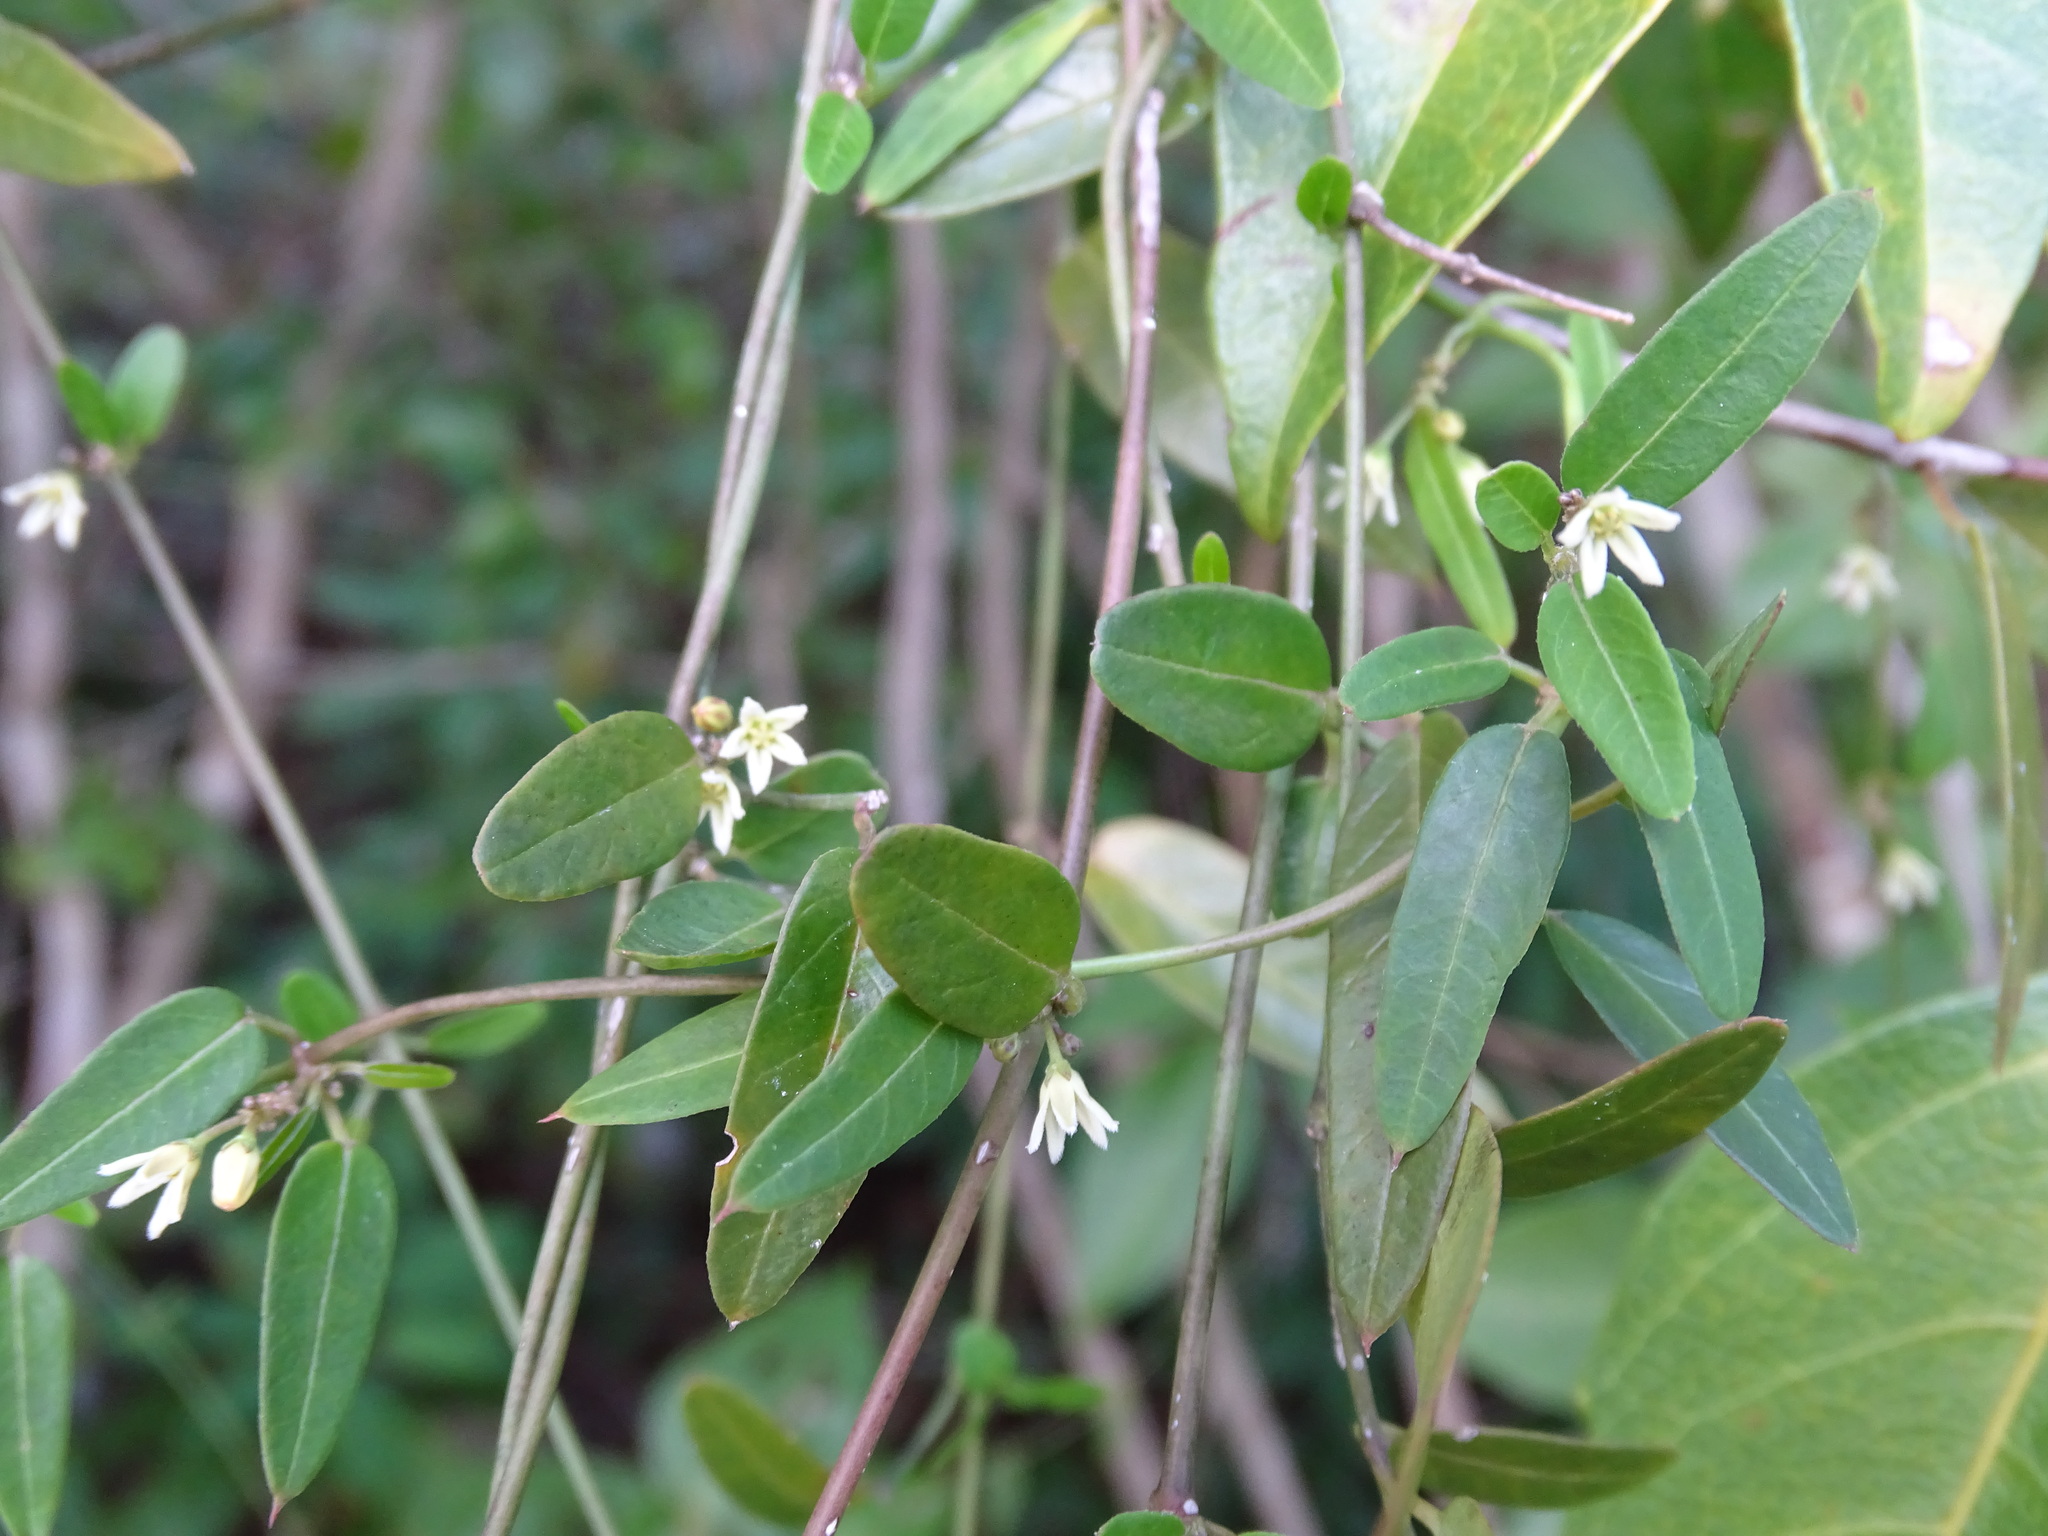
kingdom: Plantae
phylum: Tracheophyta
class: Magnoliopsida
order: Gentianales
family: Apocynaceae
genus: Metastelma
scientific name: Metastelma schlechtendalii
